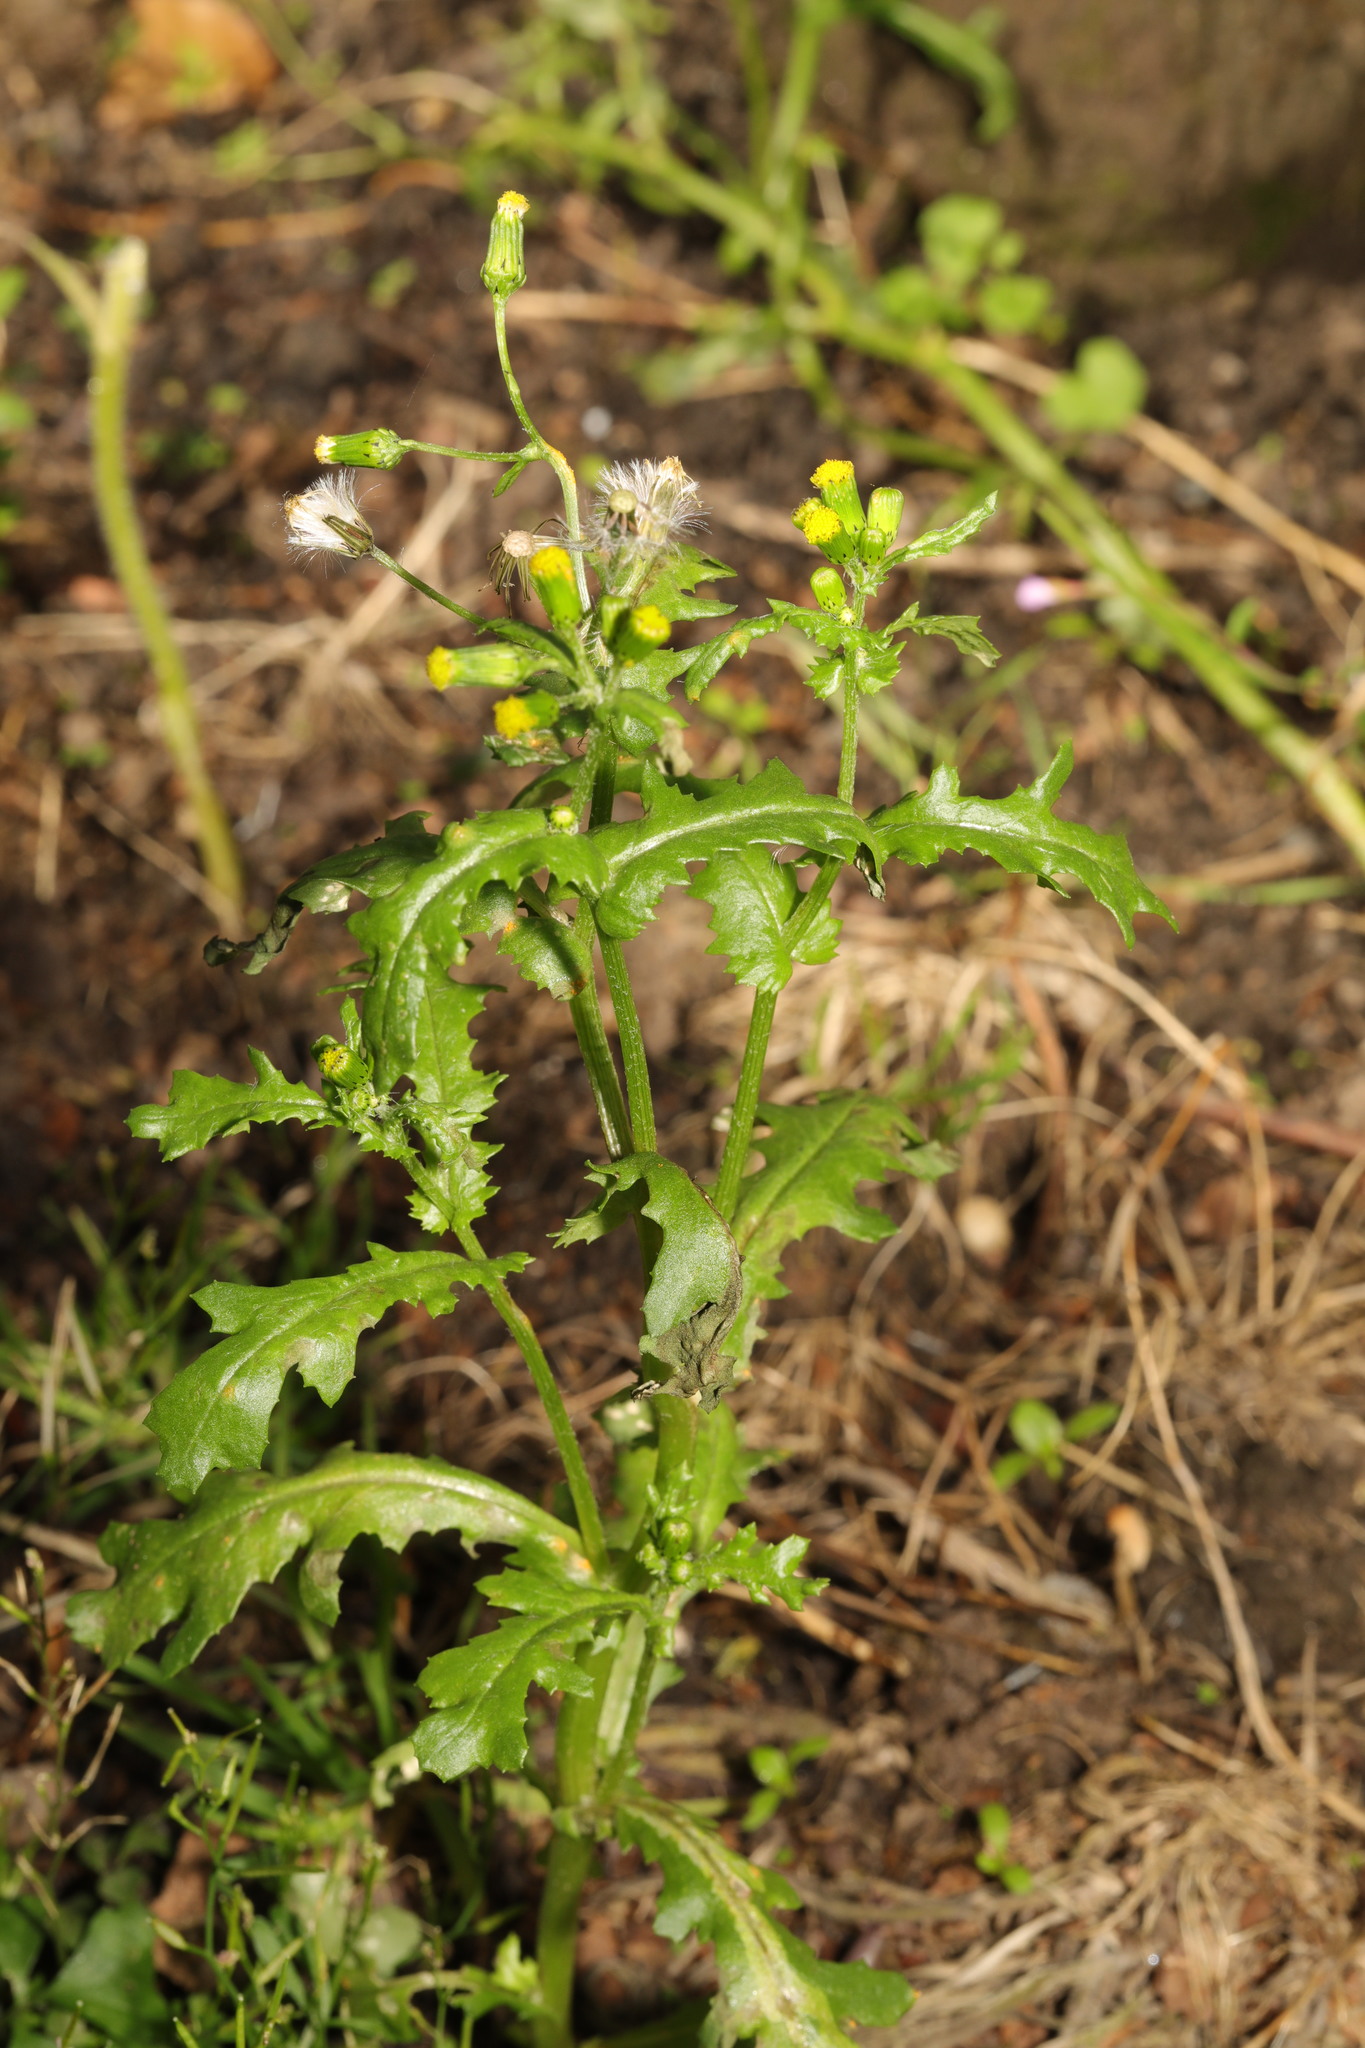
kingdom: Plantae
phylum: Tracheophyta
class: Magnoliopsida
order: Asterales
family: Asteraceae
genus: Senecio
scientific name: Senecio vulgaris
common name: Old-man-in-the-spring
